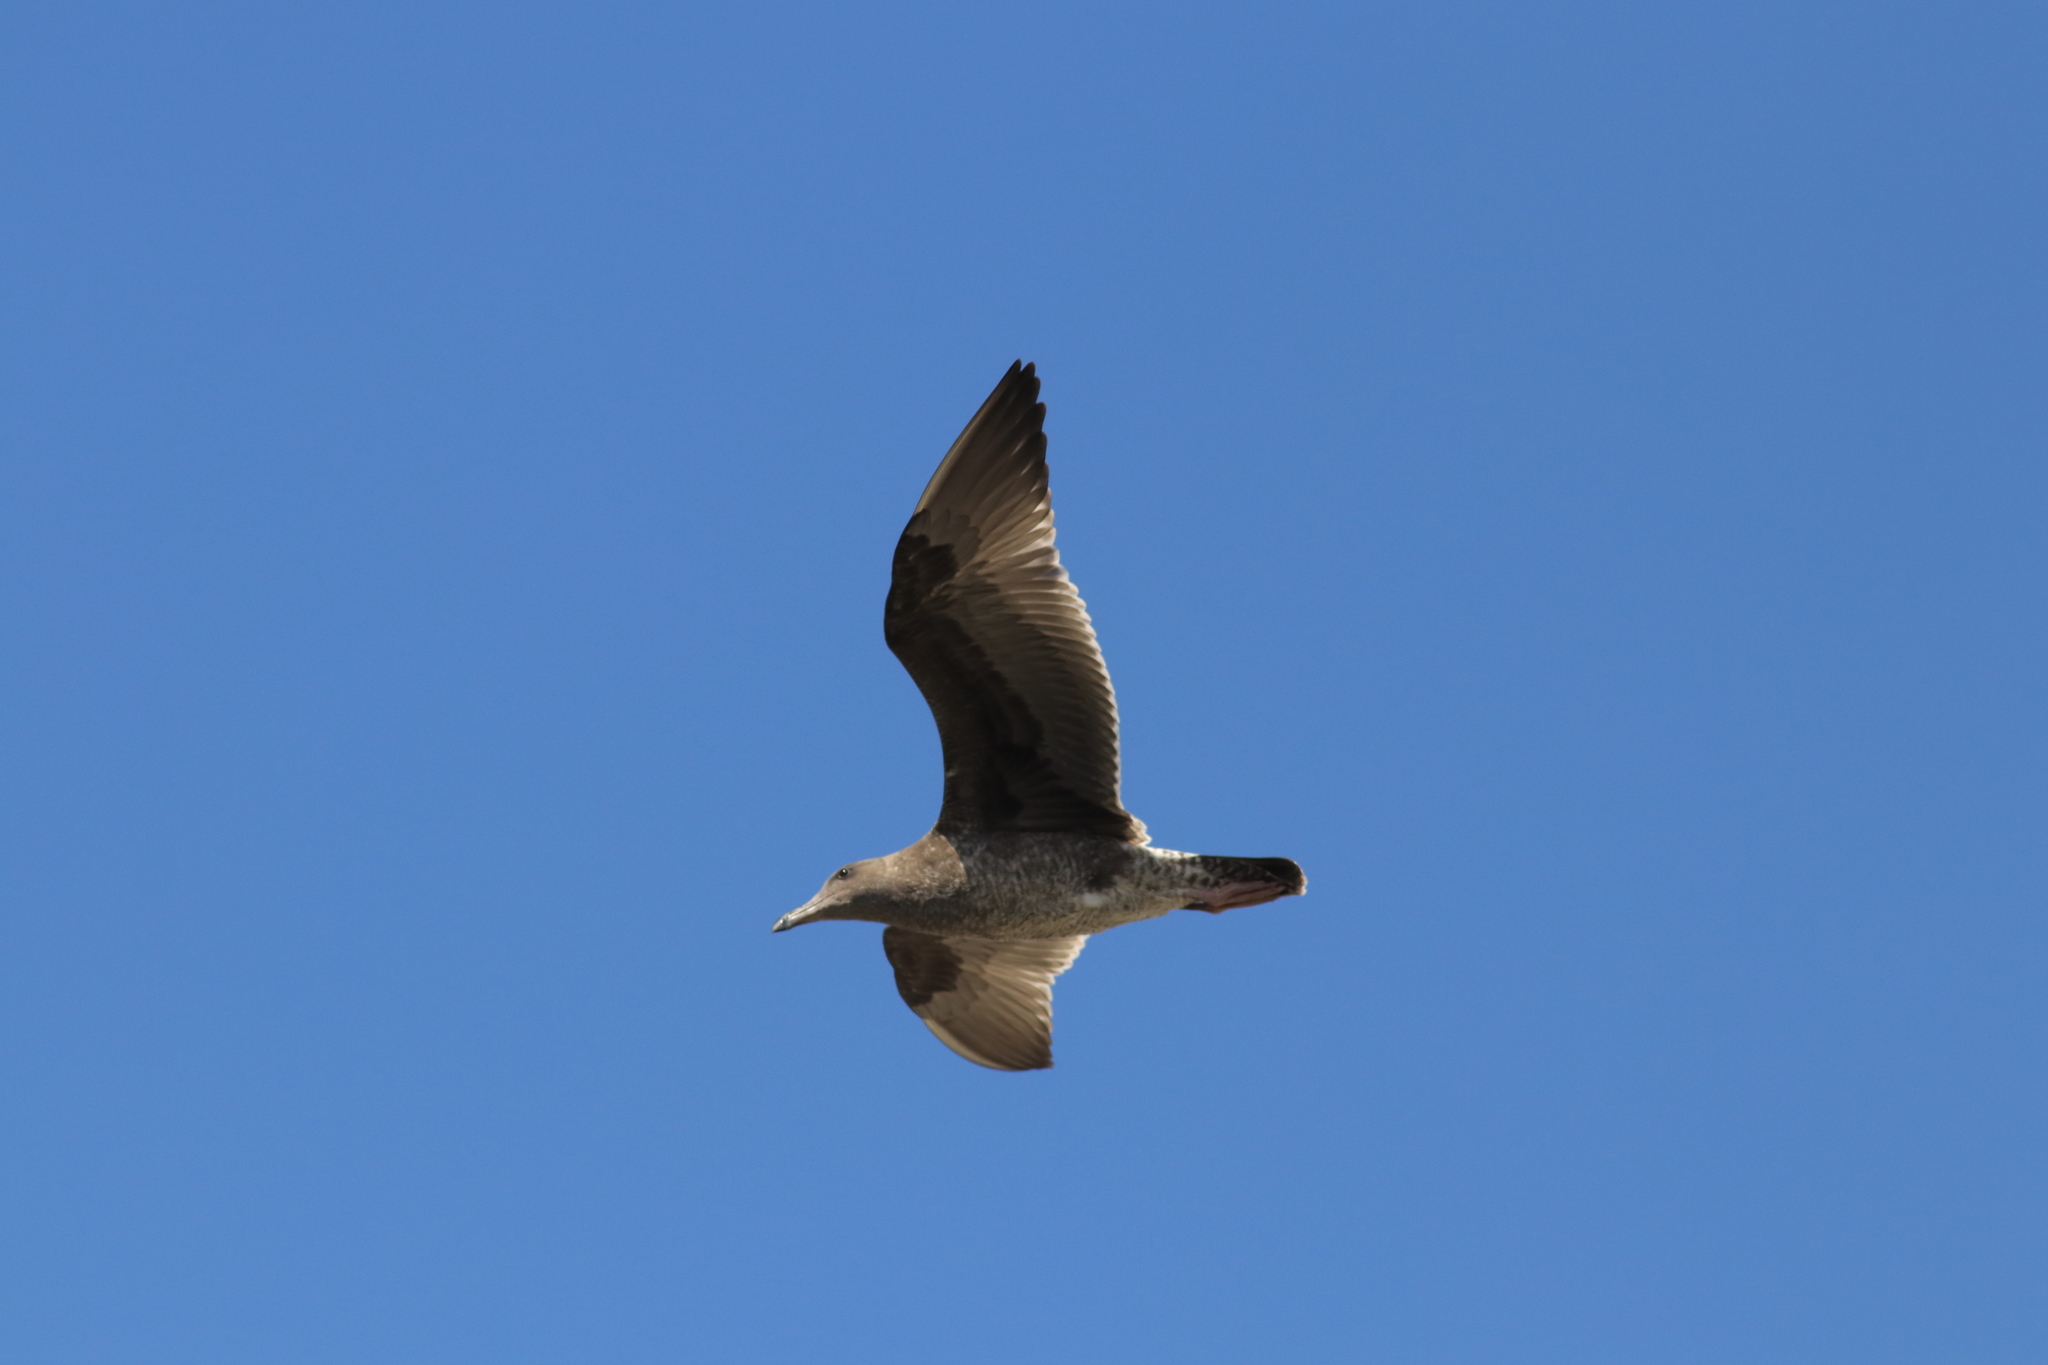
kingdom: Animalia
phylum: Chordata
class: Aves
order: Charadriiformes
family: Laridae
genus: Larus
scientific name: Larus occidentalis
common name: Western gull
